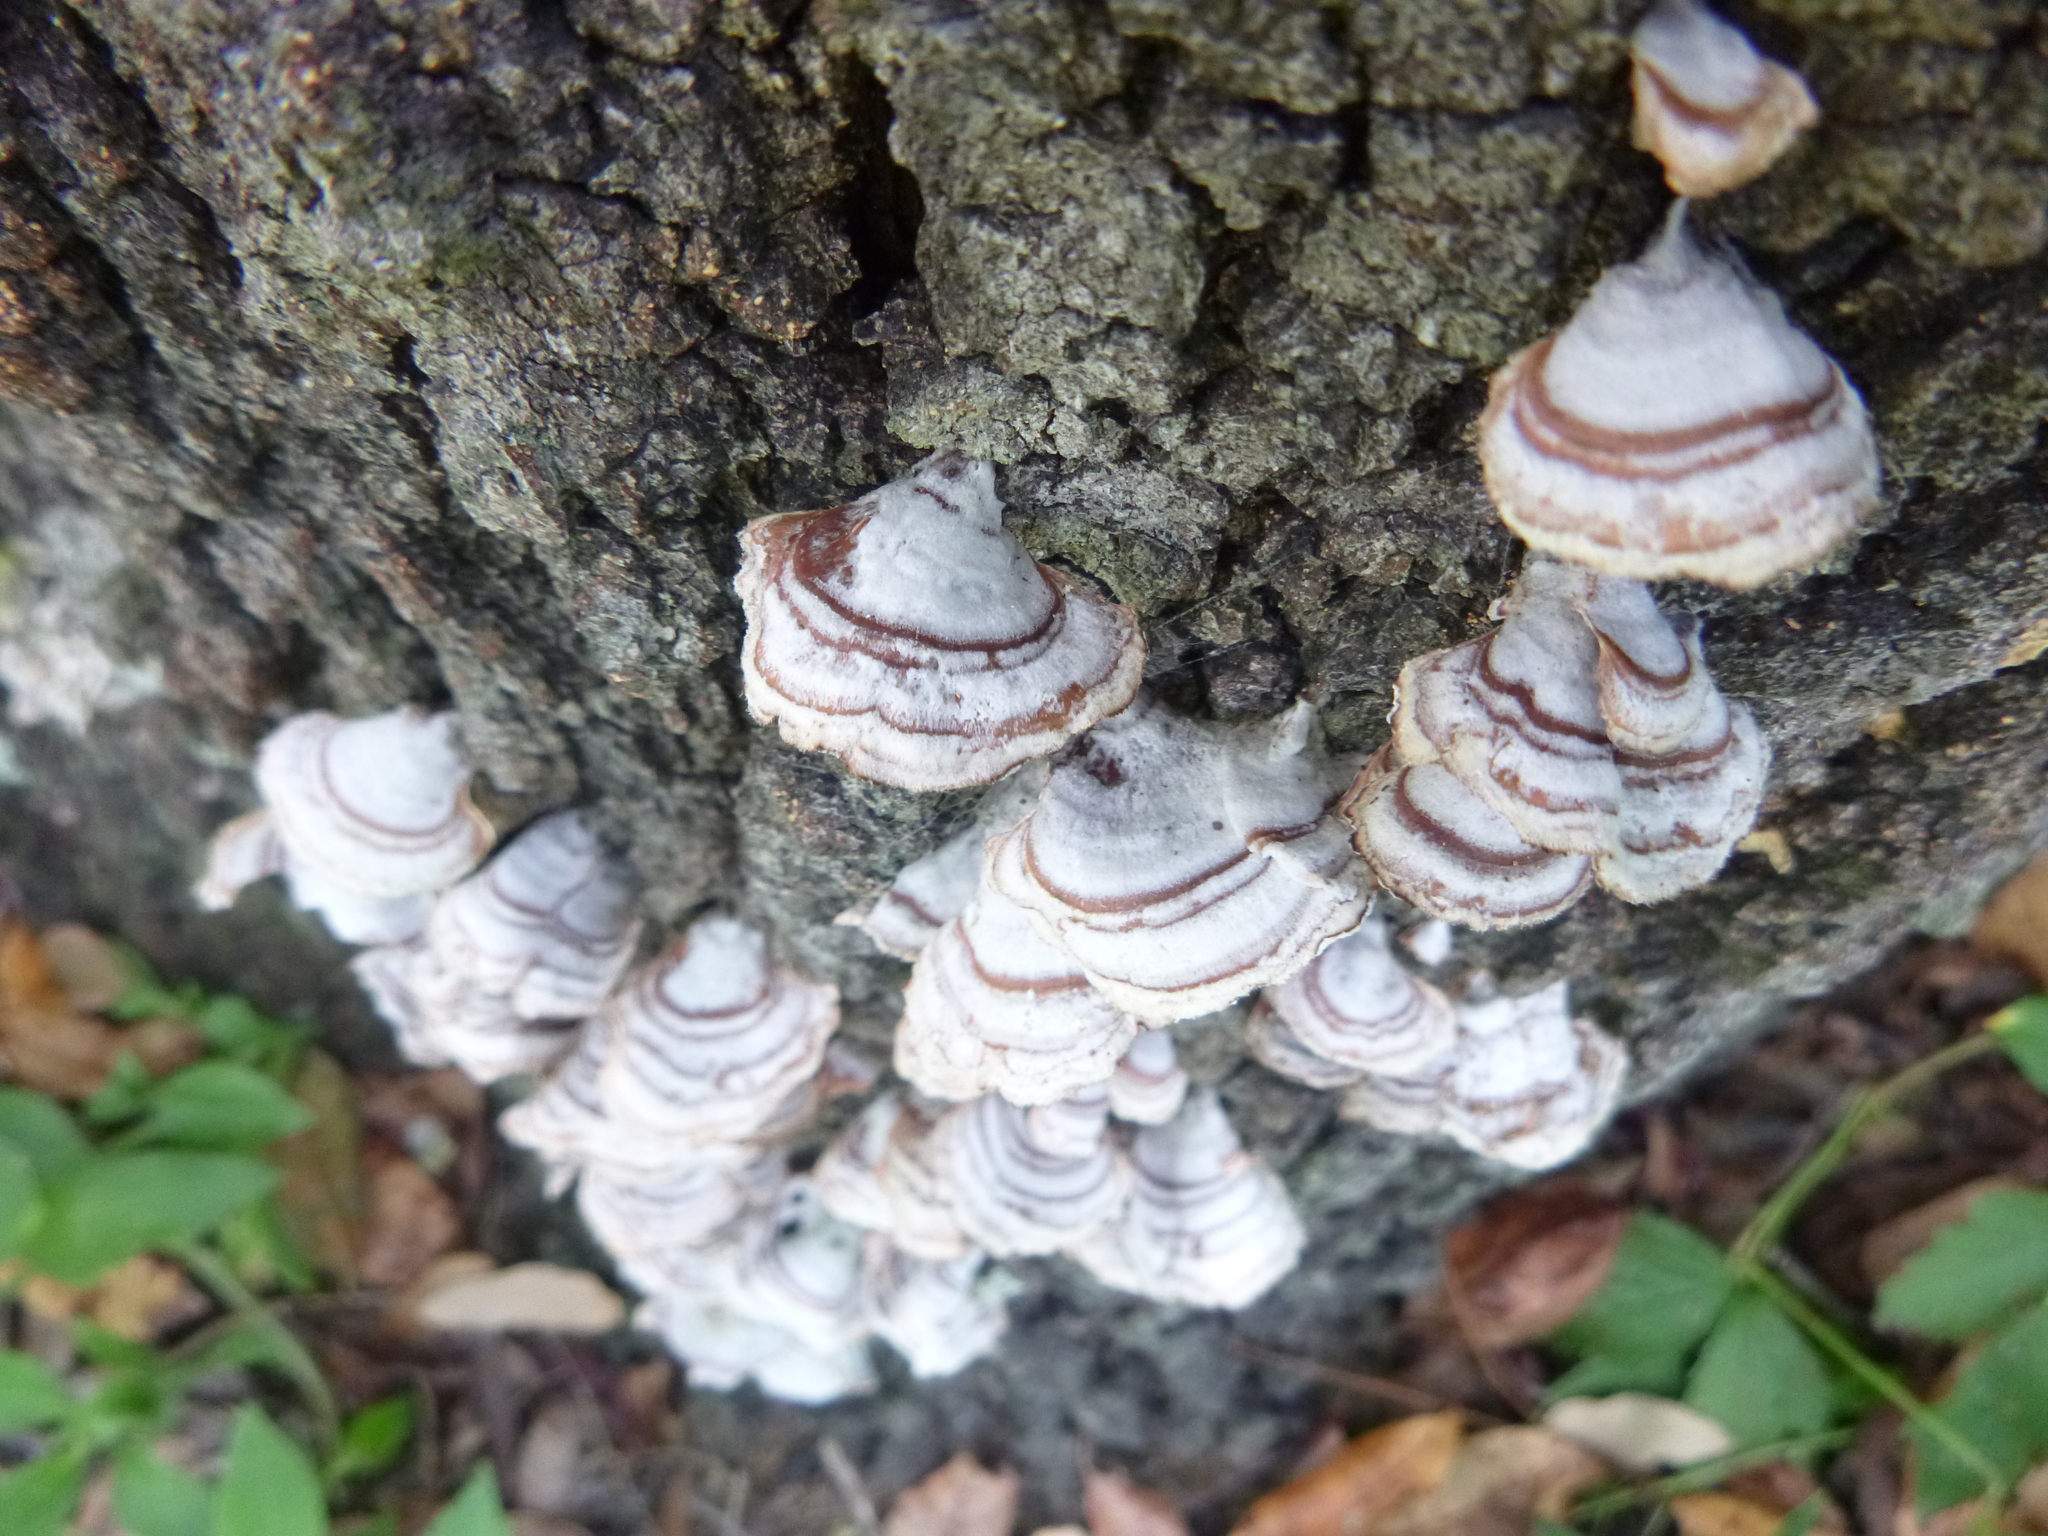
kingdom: Fungi
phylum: Basidiomycota
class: Agaricomycetes
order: Russulales
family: Stereaceae
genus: Stereum
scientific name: Stereum lobatum
